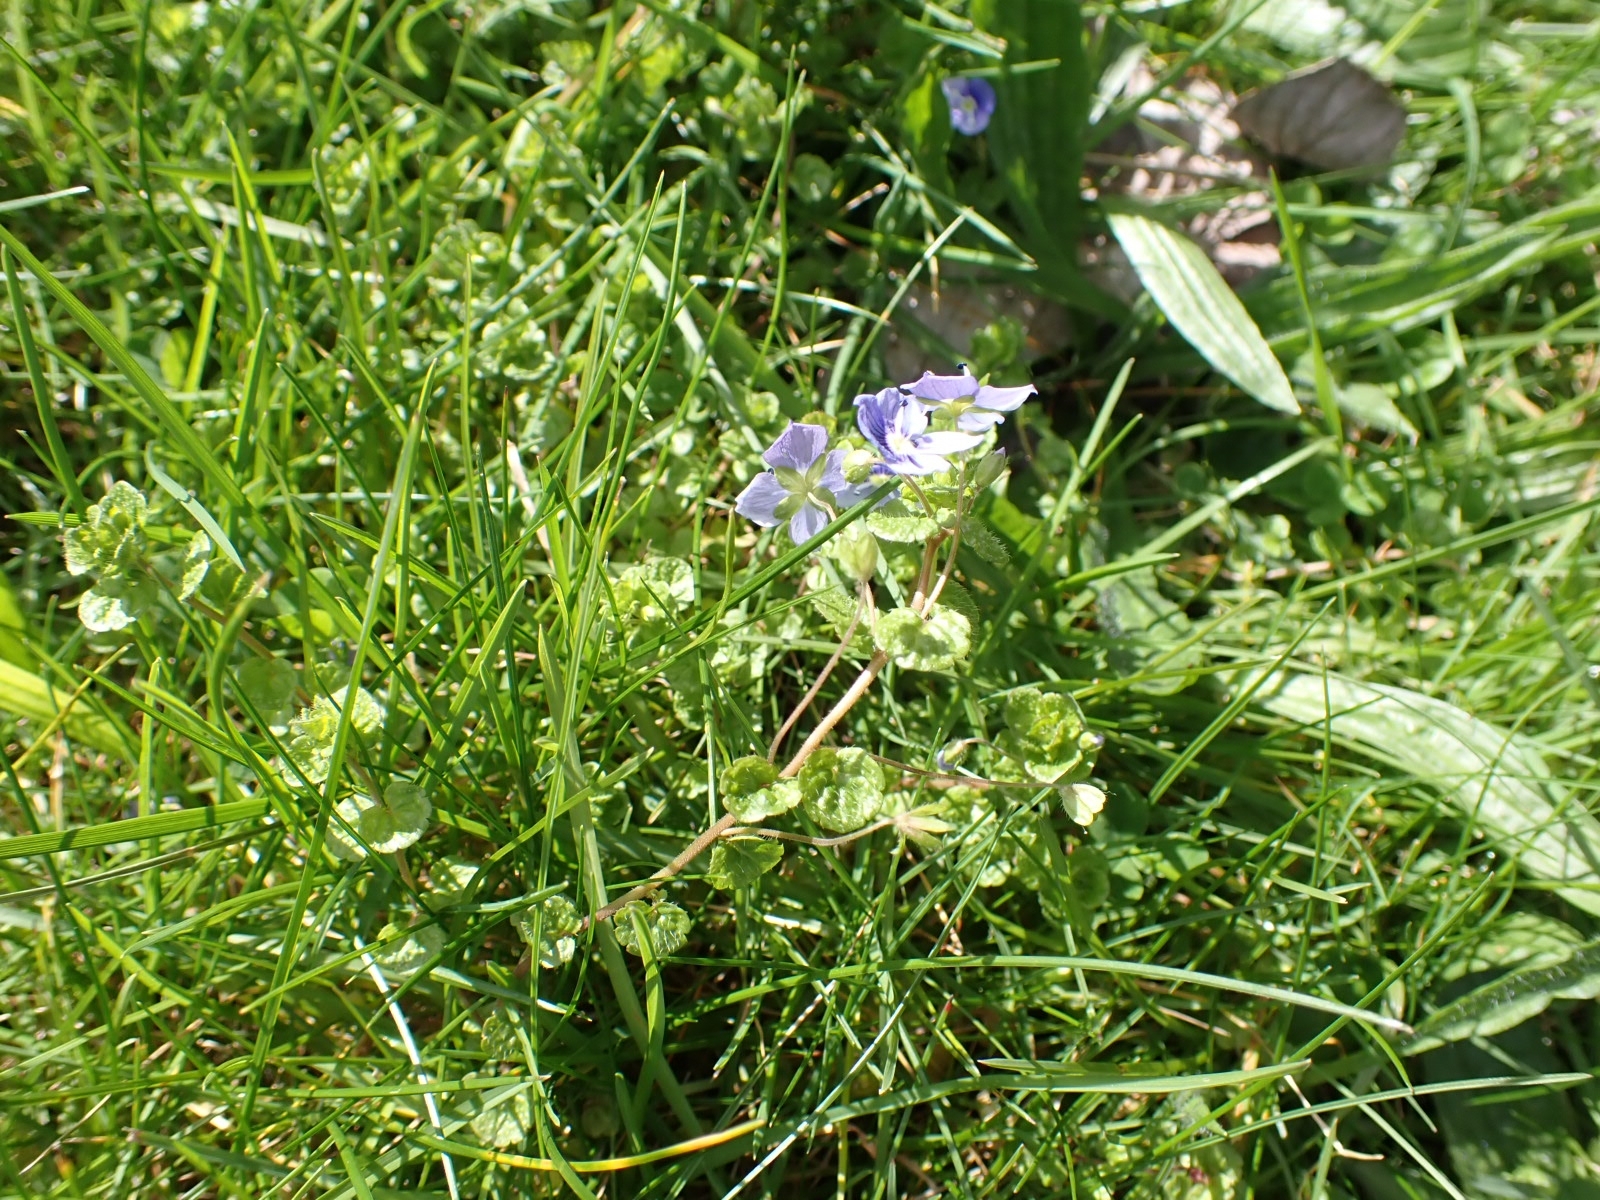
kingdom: Plantae
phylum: Tracheophyta
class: Magnoliopsida
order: Lamiales
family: Plantaginaceae
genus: Veronica
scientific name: Veronica filiformis
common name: Slender speedwell
